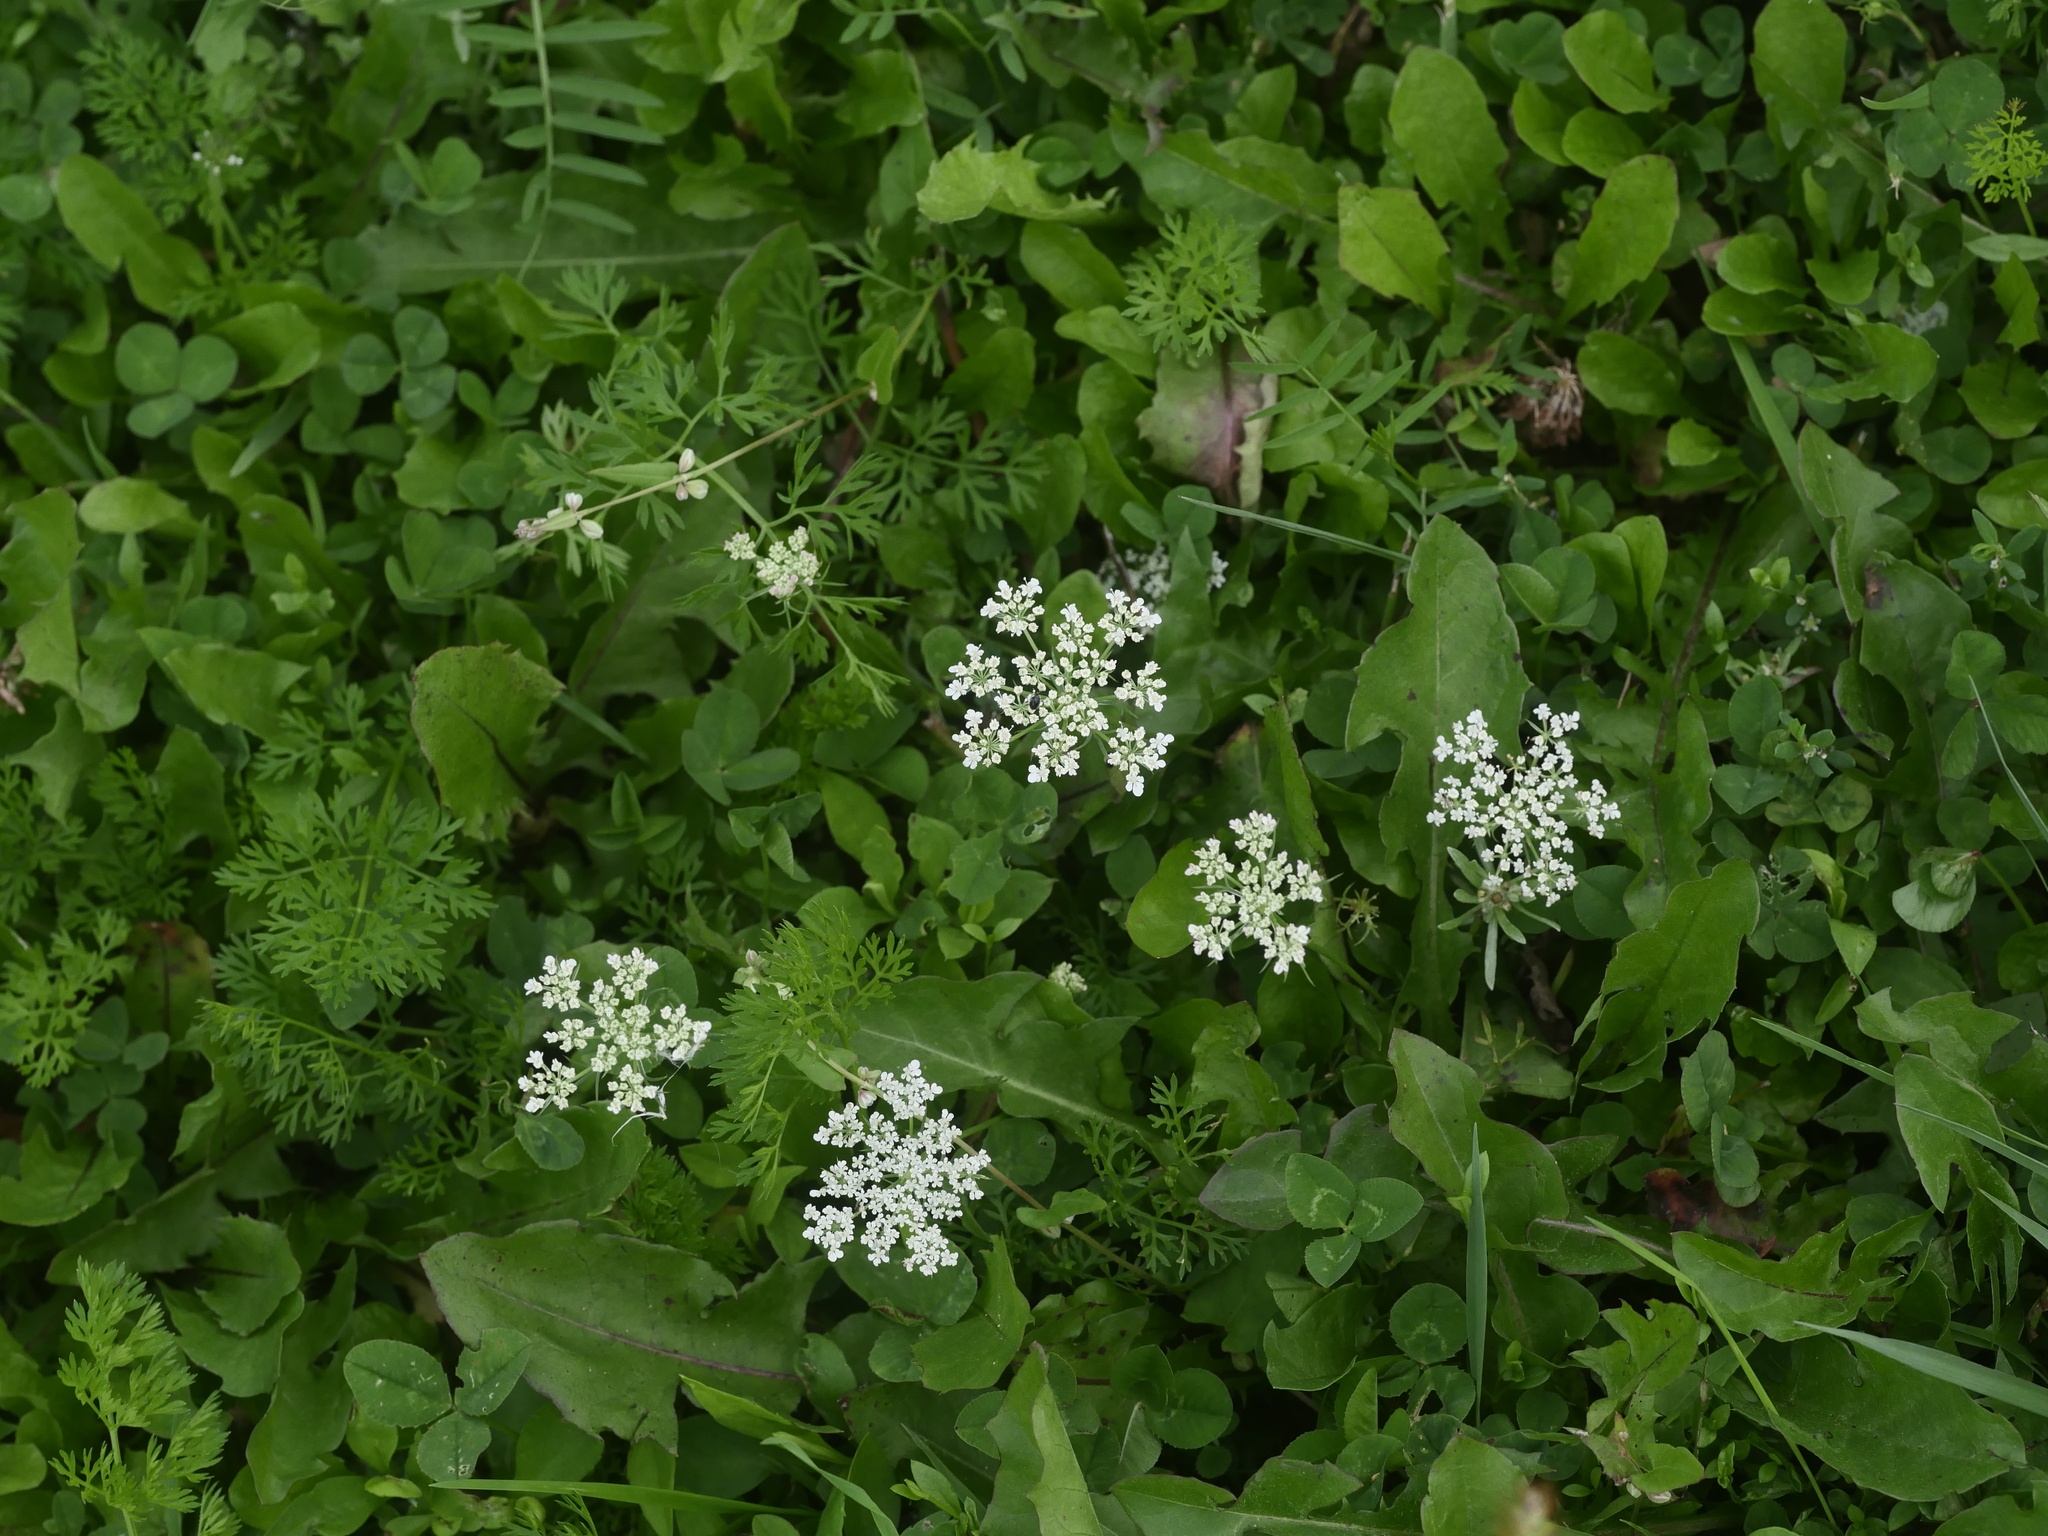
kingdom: Plantae
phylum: Tracheophyta
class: Magnoliopsida
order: Apiales
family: Apiaceae
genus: Daucus
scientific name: Daucus carota
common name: Wild carrot
